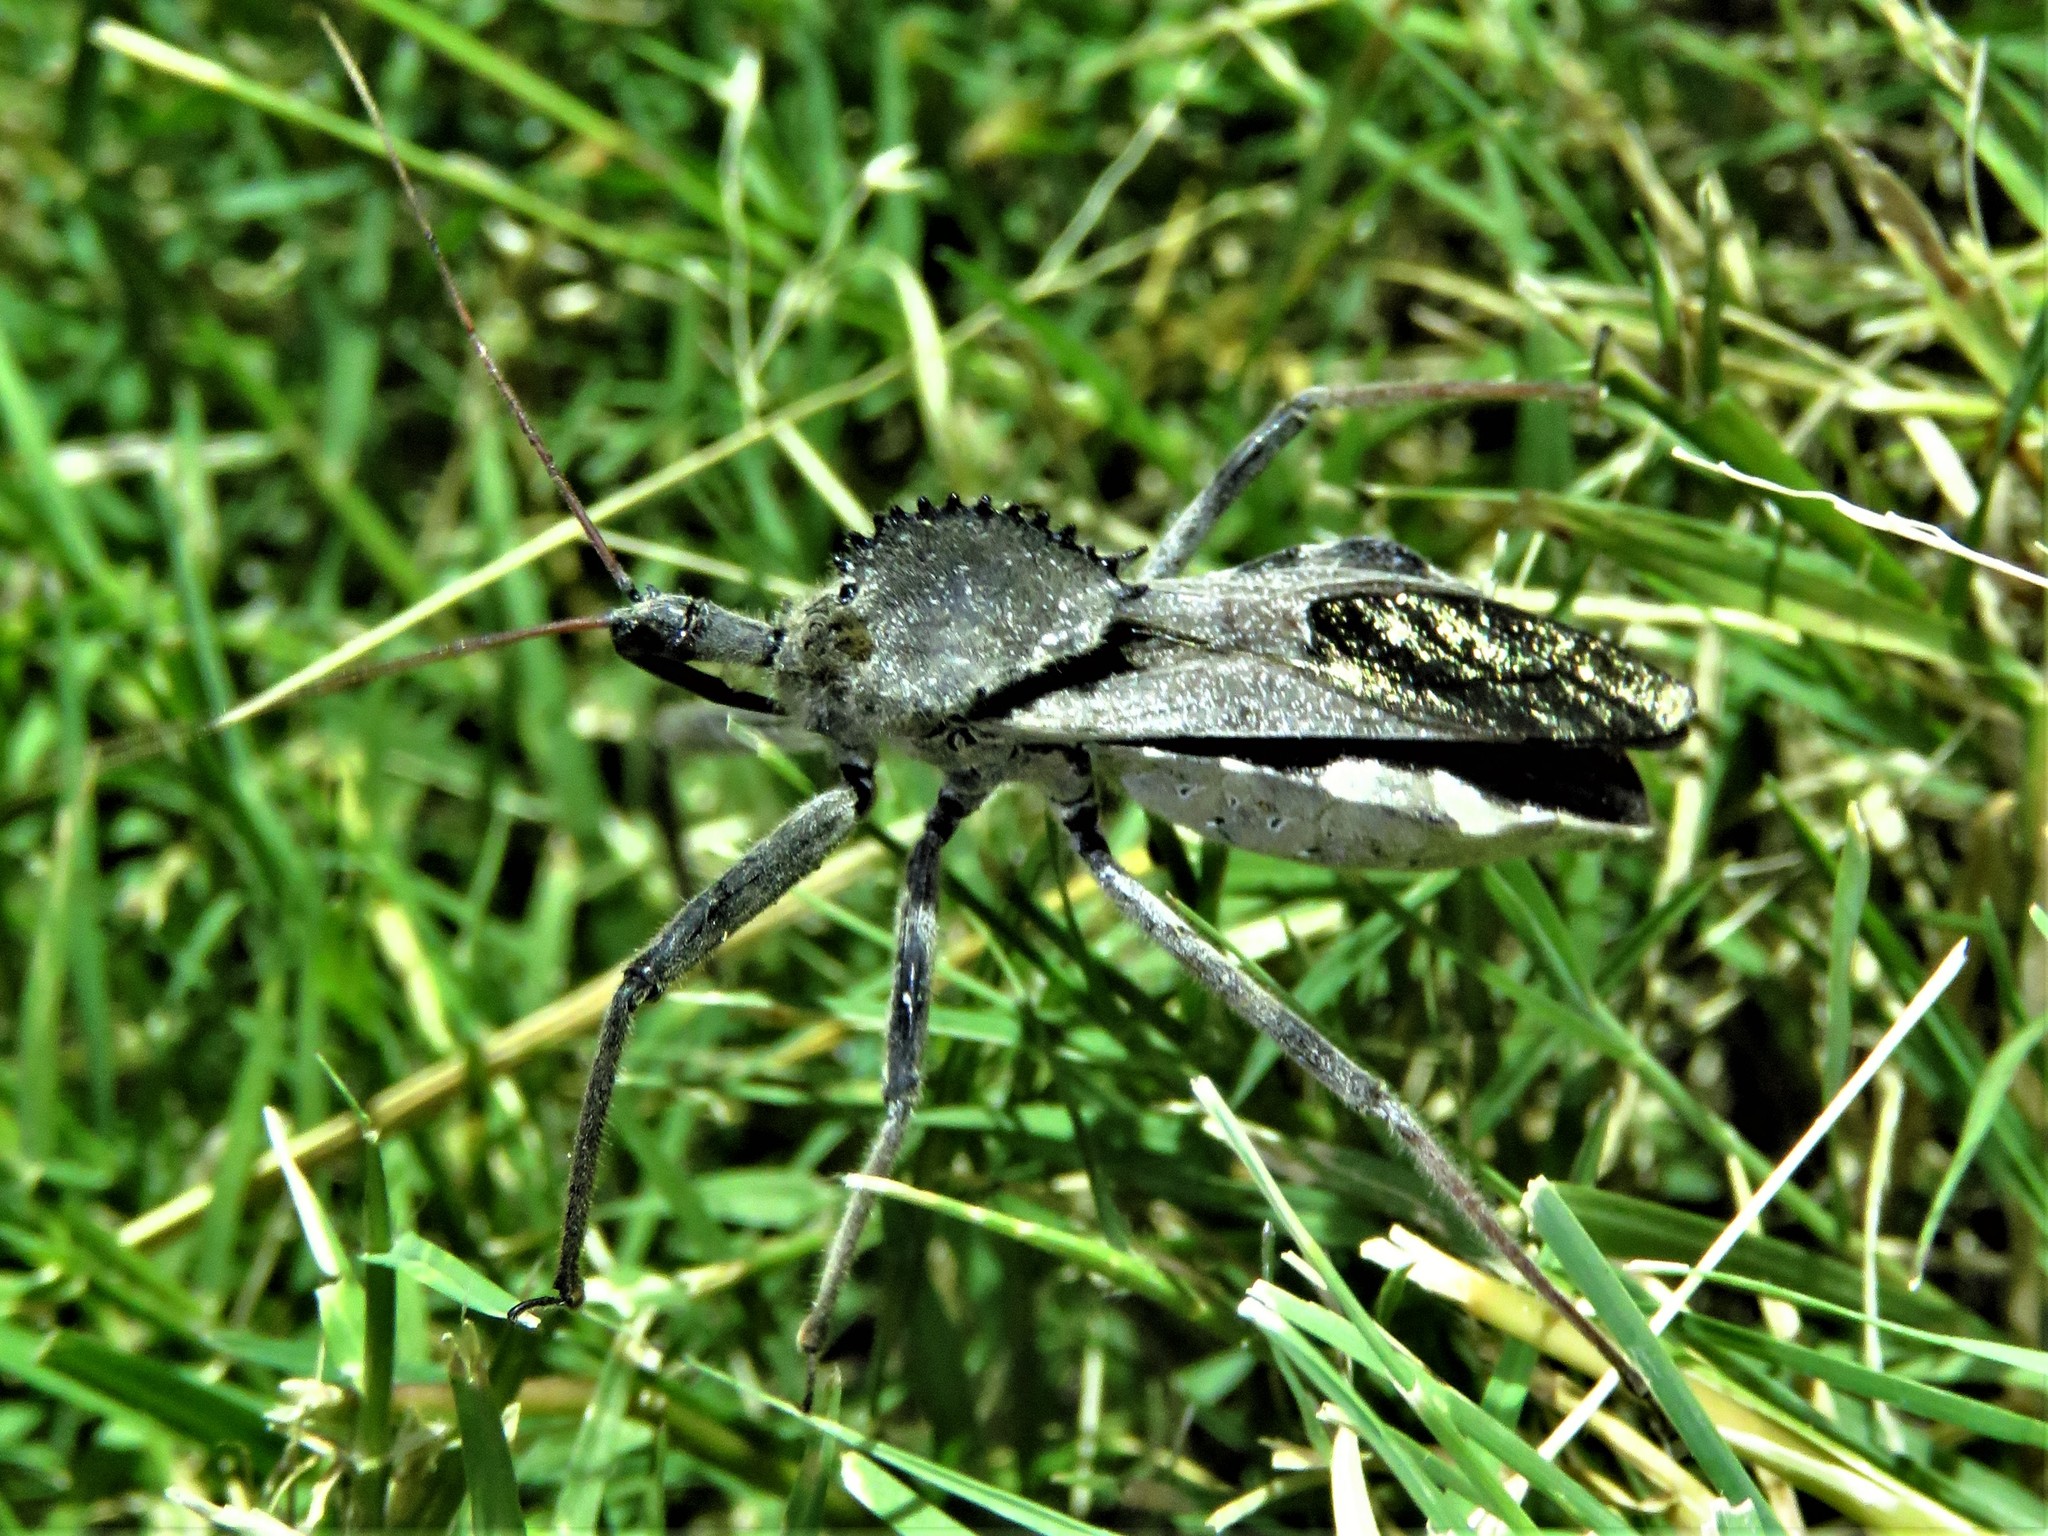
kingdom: Animalia
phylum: Arthropoda
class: Insecta
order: Hemiptera
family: Reduviidae
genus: Arilus
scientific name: Arilus cristatus
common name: North american wheel bug
